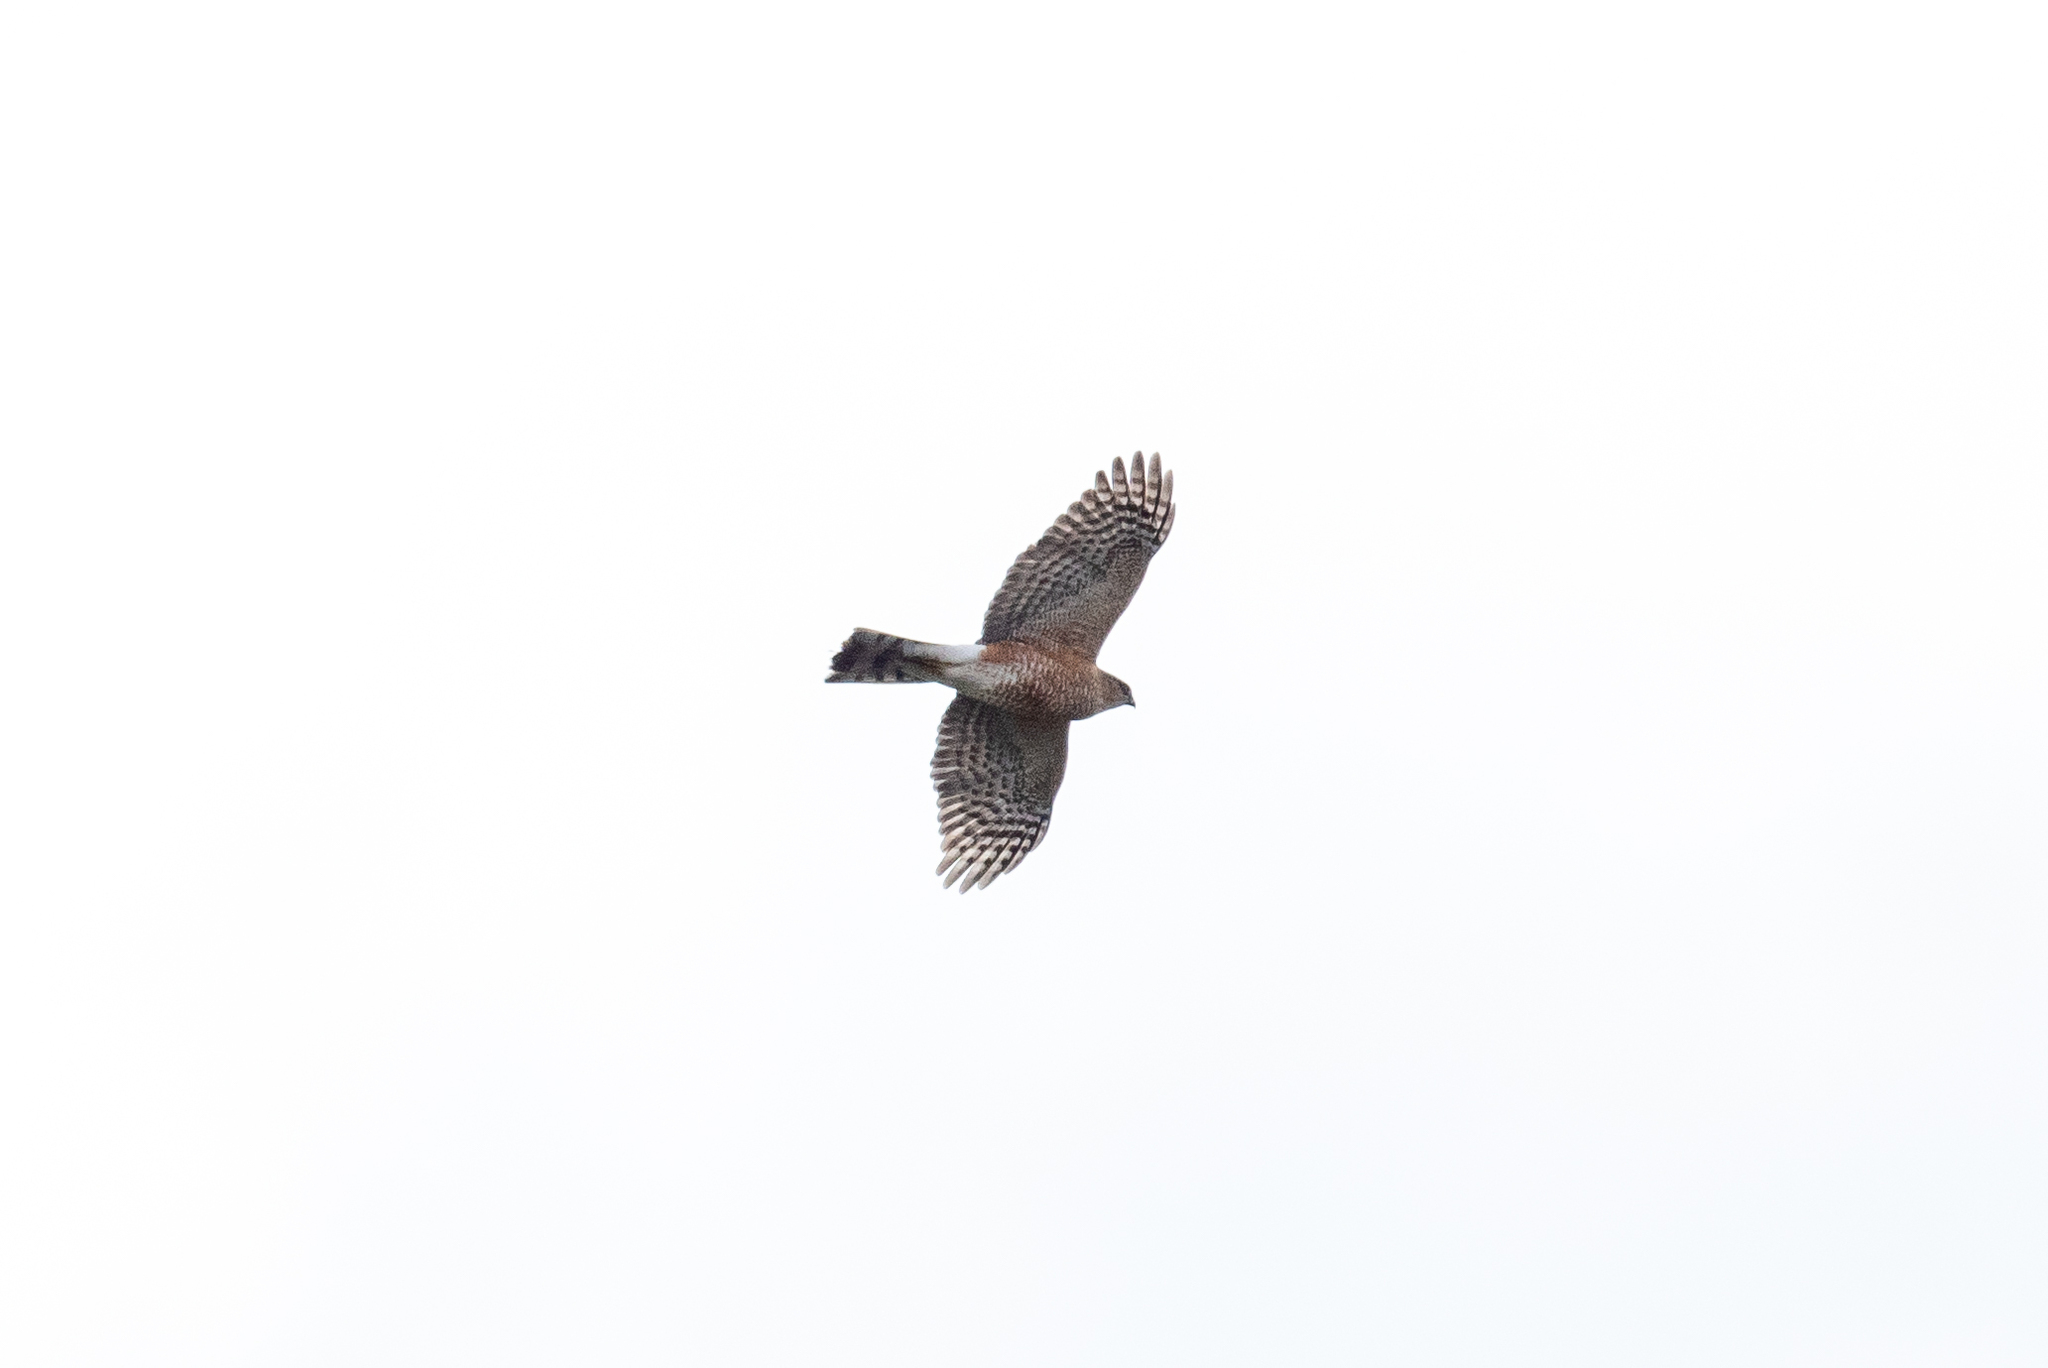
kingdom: Animalia
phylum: Chordata
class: Aves
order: Accipitriformes
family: Accipitridae
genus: Accipiter
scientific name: Accipiter cooperii
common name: Cooper's hawk
